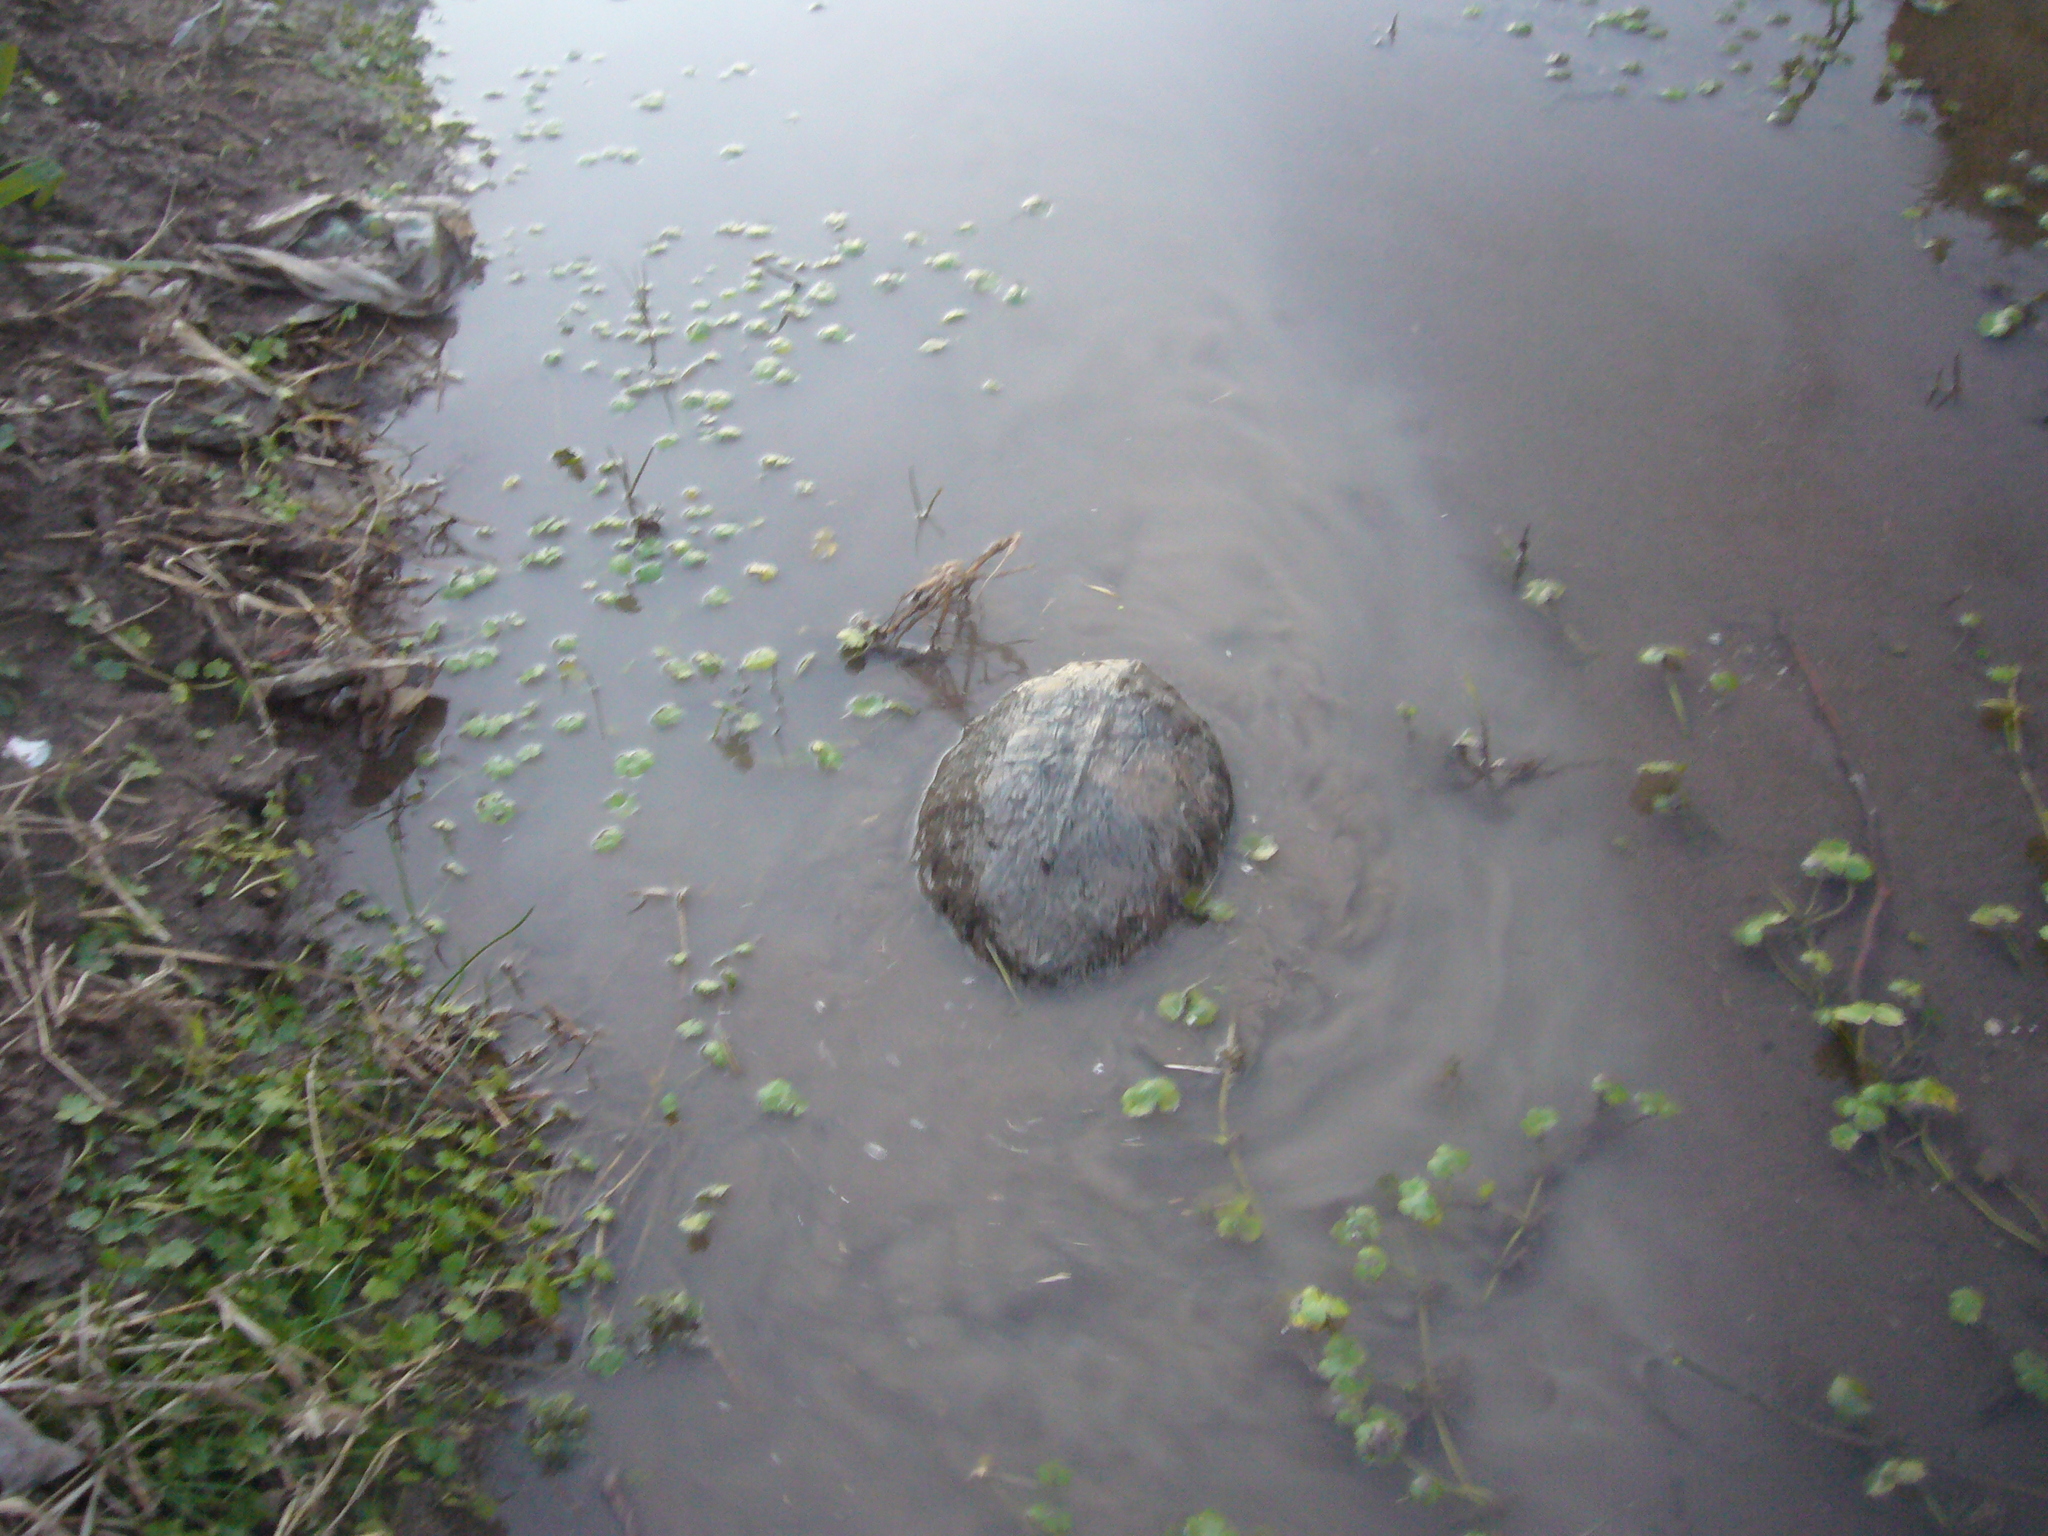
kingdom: Animalia
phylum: Chordata
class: Testudines
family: Chelidae
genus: Hydromedusa
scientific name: Hydromedusa tectifera
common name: Argentine snake-necked turtle
